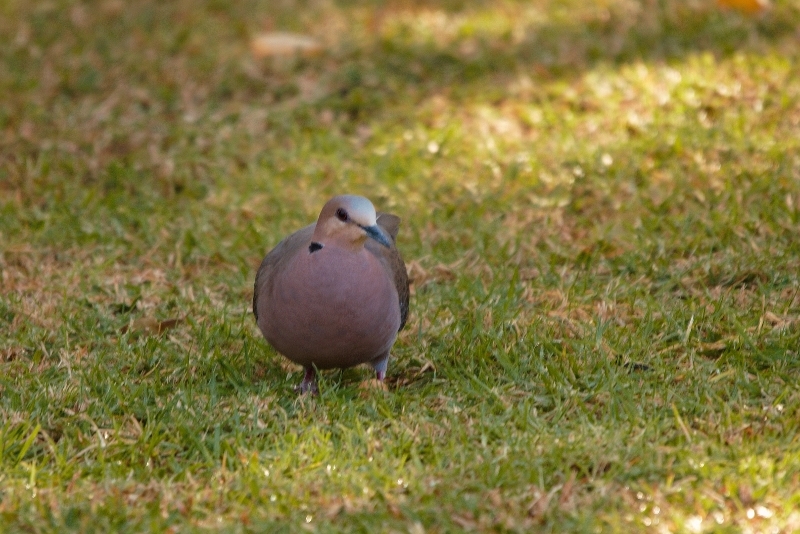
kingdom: Animalia
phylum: Chordata
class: Aves
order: Columbiformes
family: Columbidae
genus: Streptopelia
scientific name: Streptopelia semitorquata
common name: Red-eyed dove
